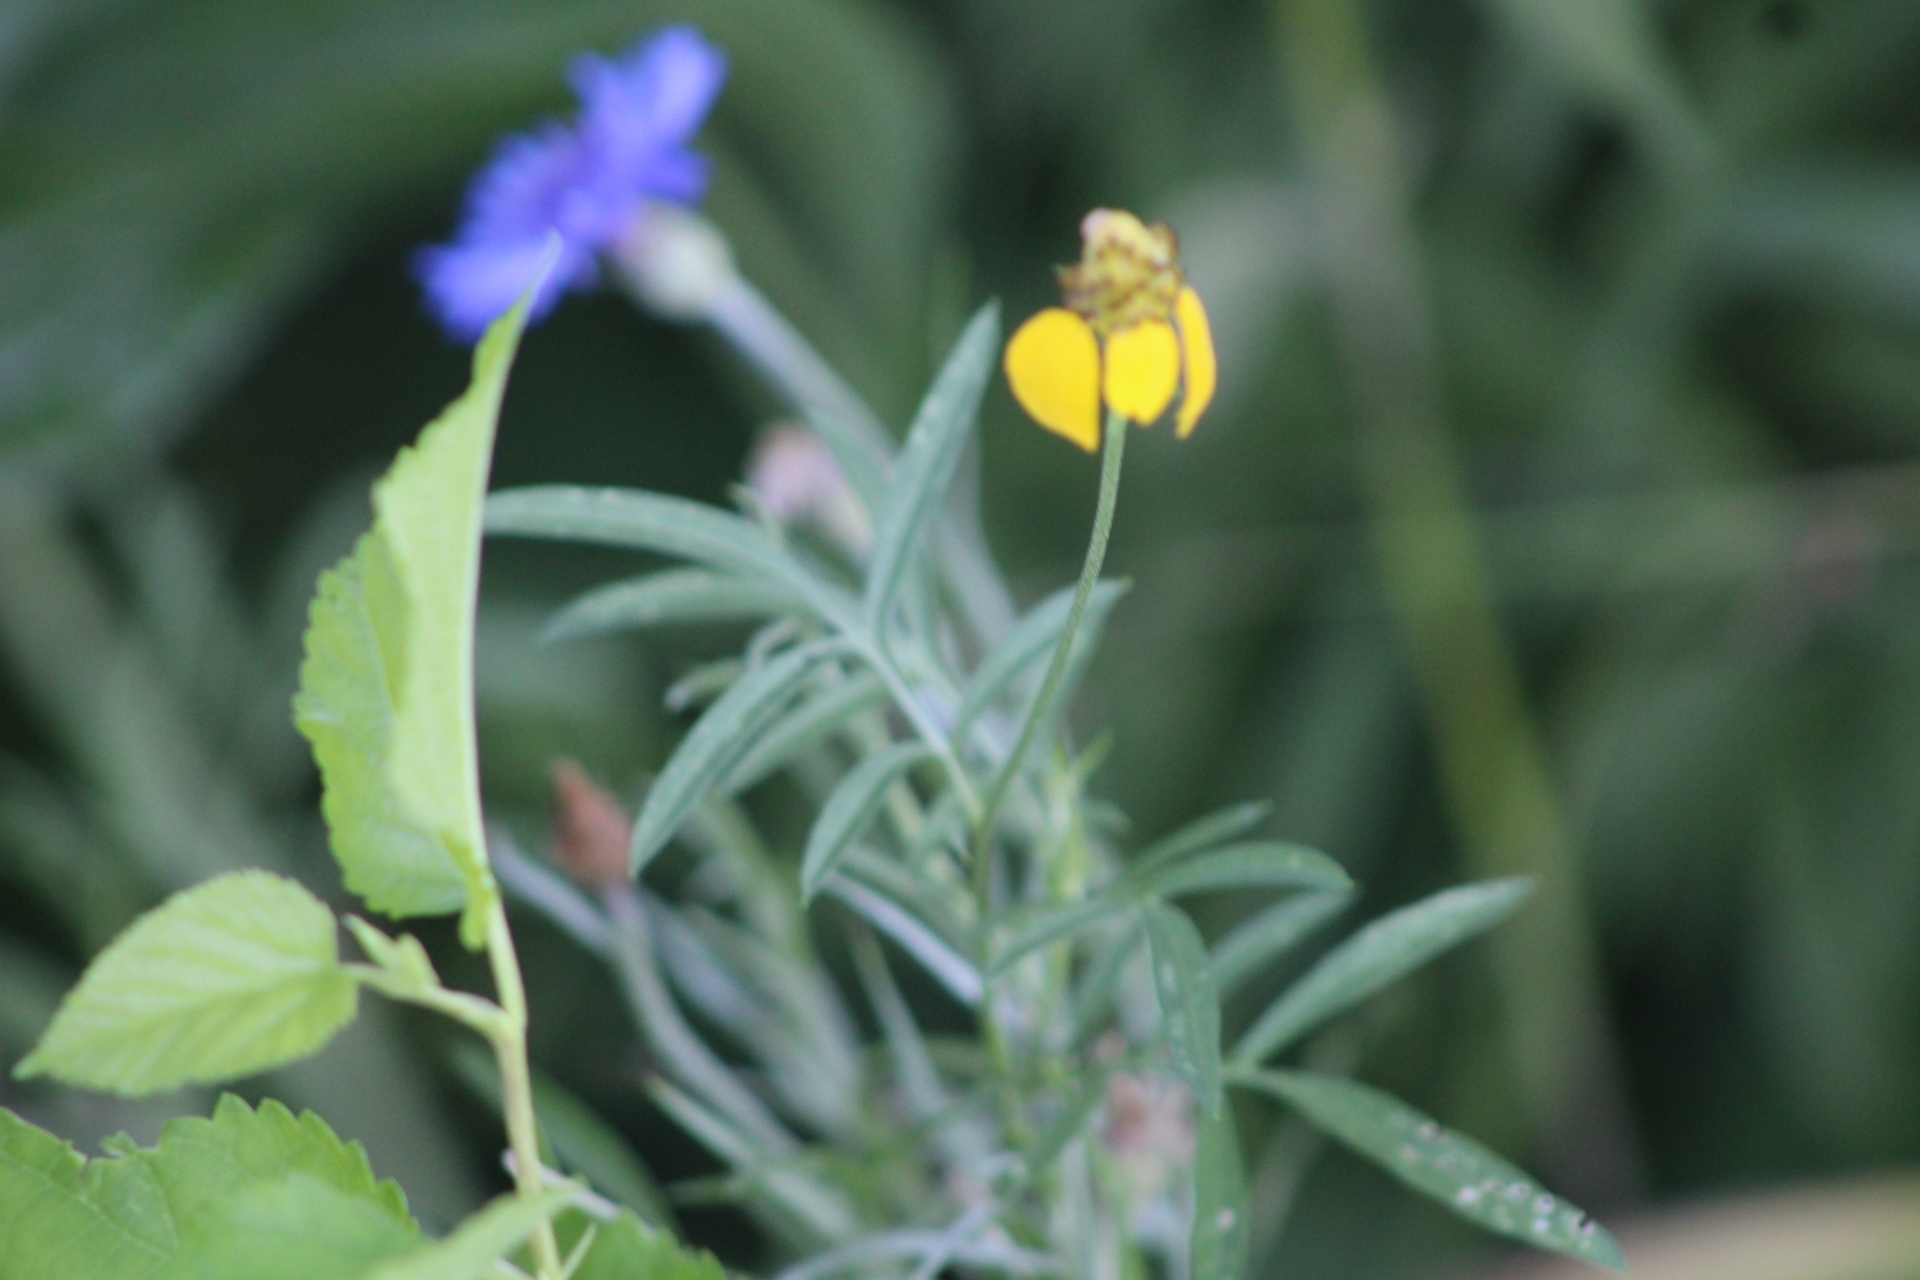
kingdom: Plantae
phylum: Tracheophyta
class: Magnoliopsida
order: Asterales
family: Asteraceae
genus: Centaurea
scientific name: Centaurea cyanus
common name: Cornflower
